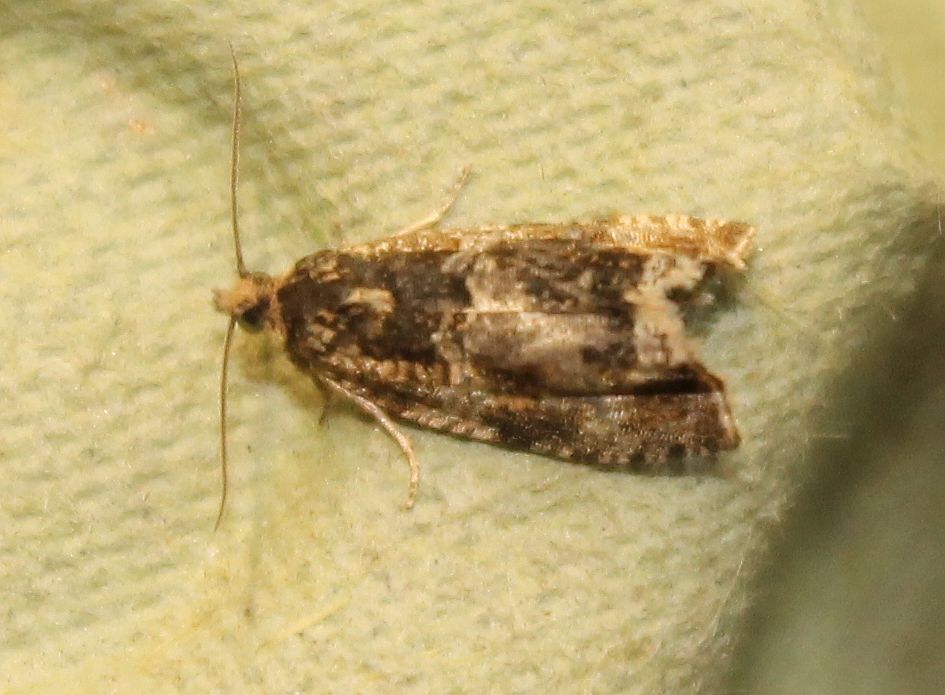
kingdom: Animalia
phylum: Arthropoda
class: Insecta
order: Lepidoptera
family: Tortricidae
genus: Syricoris
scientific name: Syricoris lacunana
